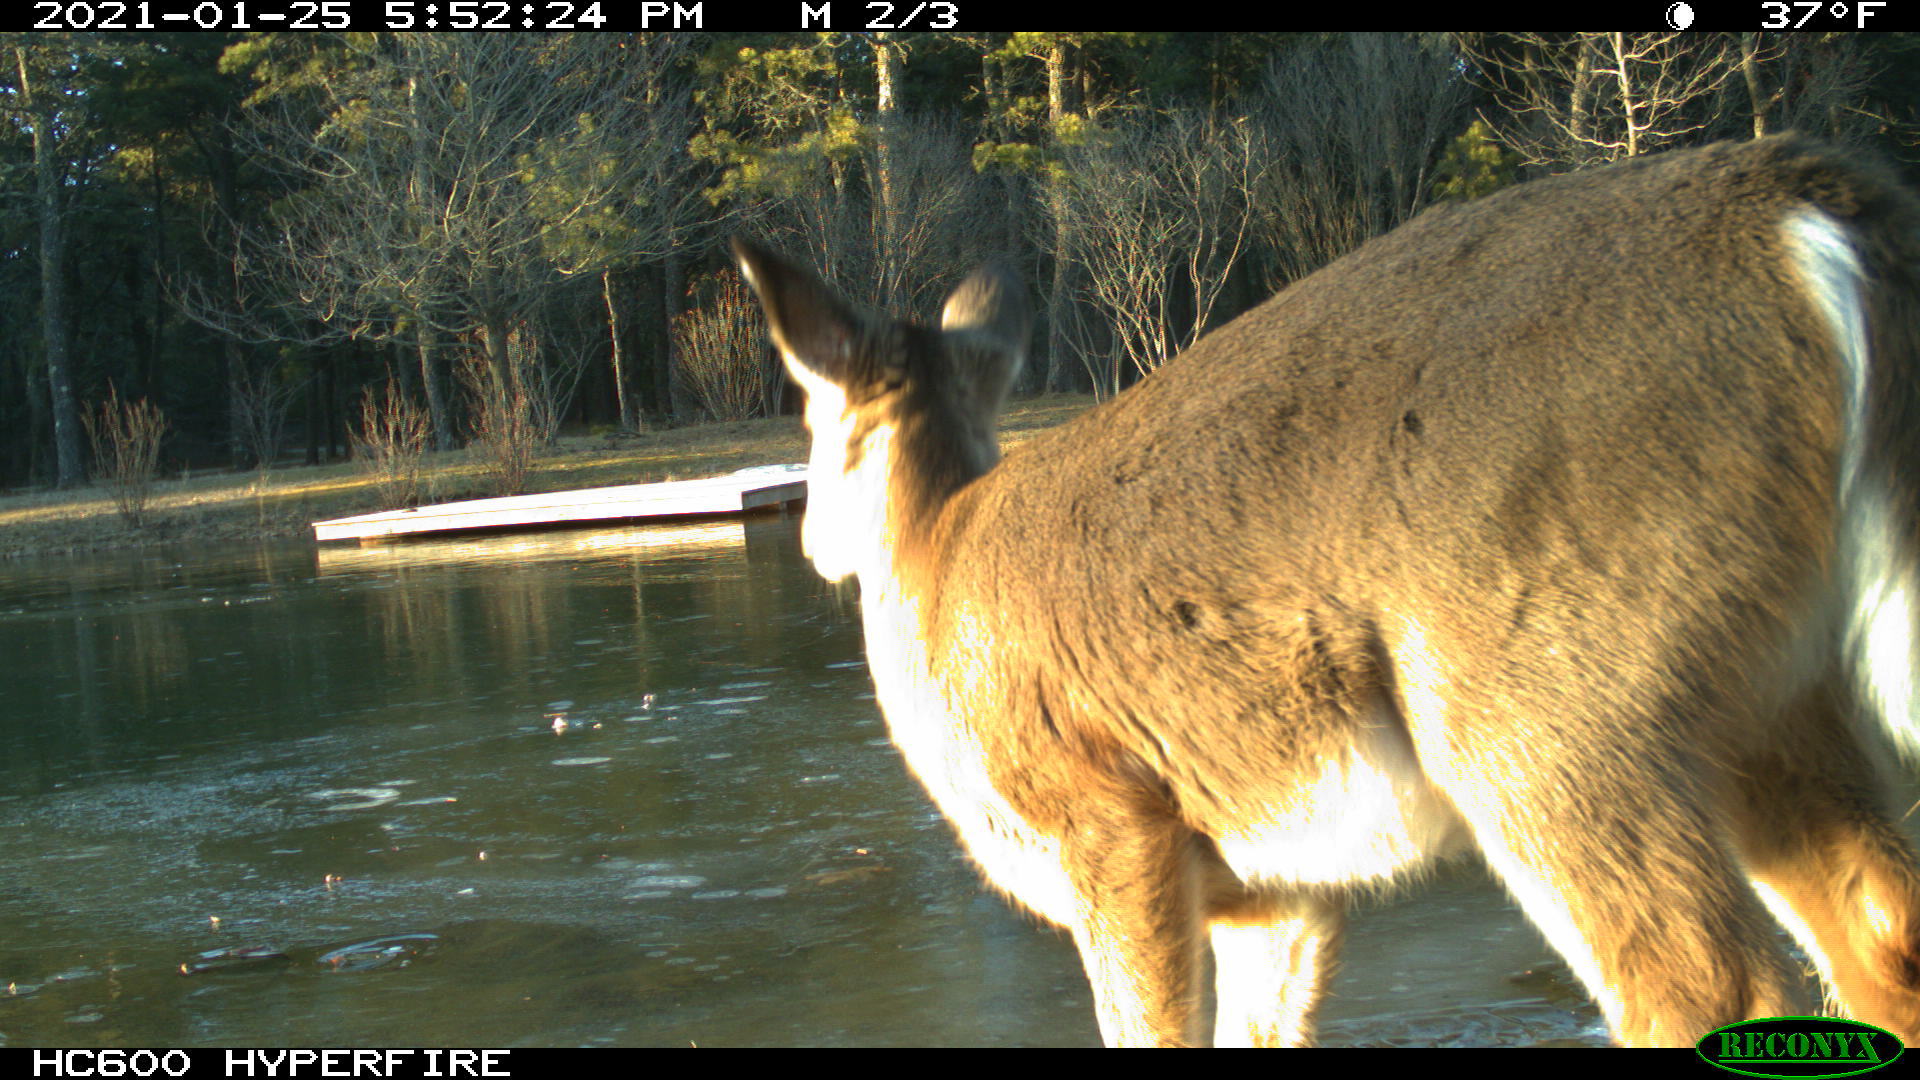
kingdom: Animalia
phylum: Chordata
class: Mammalia
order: Artiodactyla
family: Cervidae
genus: Odocoileus
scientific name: Odocoileus virginianus
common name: White-tailed deer
